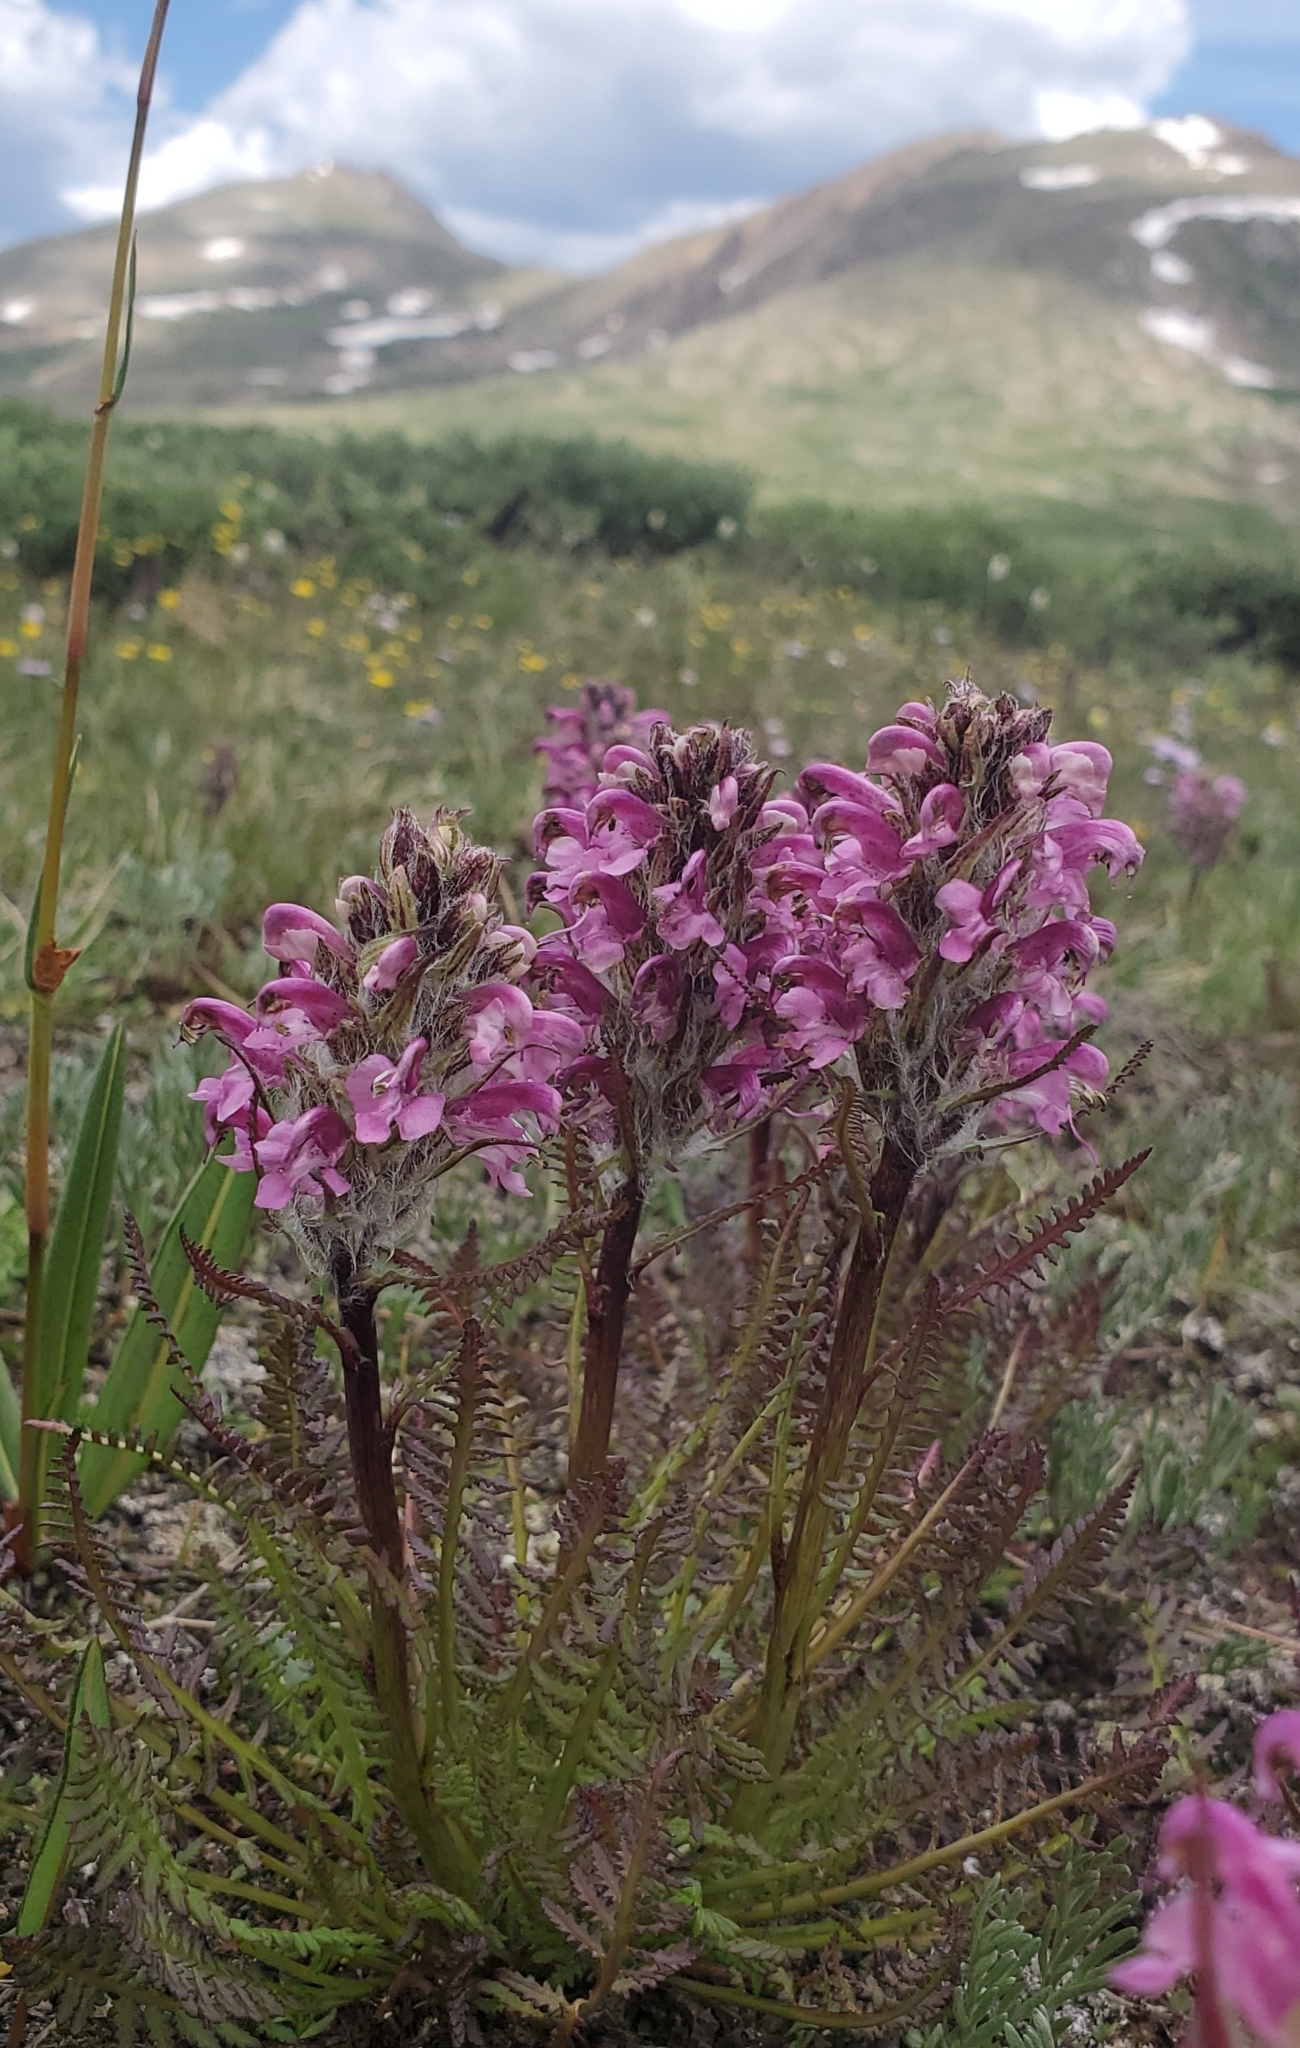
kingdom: Plantae
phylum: Tracheophyta
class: Magnoliopsida
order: Lamiales
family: Orobanchaceae
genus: Pedicularis
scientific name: Pedicularis scopulorum
